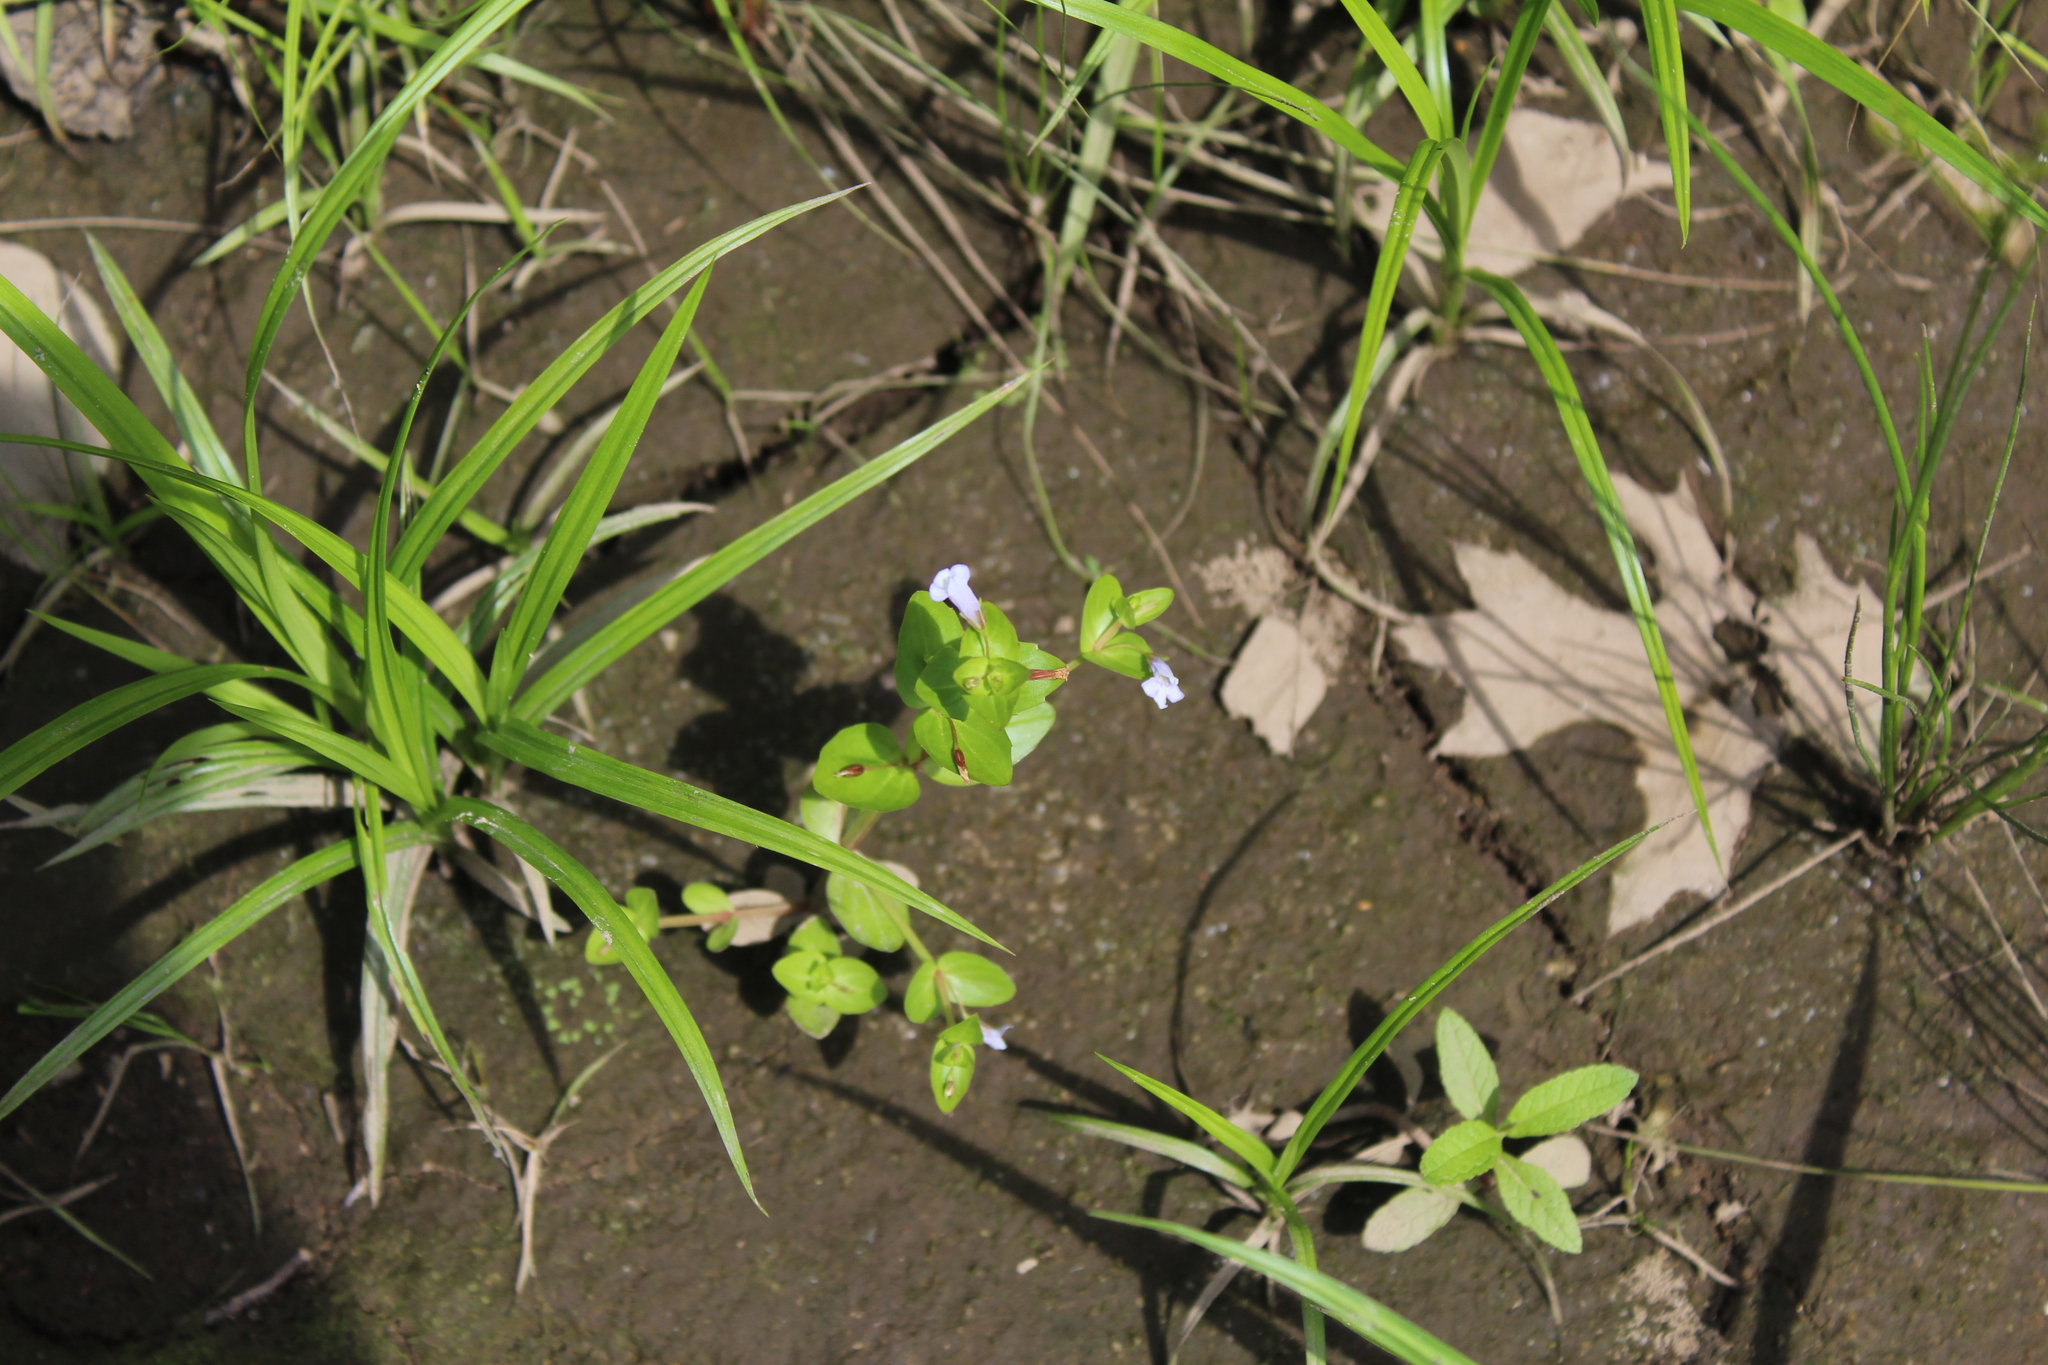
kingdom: Plantae
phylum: Tracheophyta
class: Magnoliopsida
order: Lamiales
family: Linderniaceae
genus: Lindernia
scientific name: Lindernia dubia
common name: Annual false pimpernel
